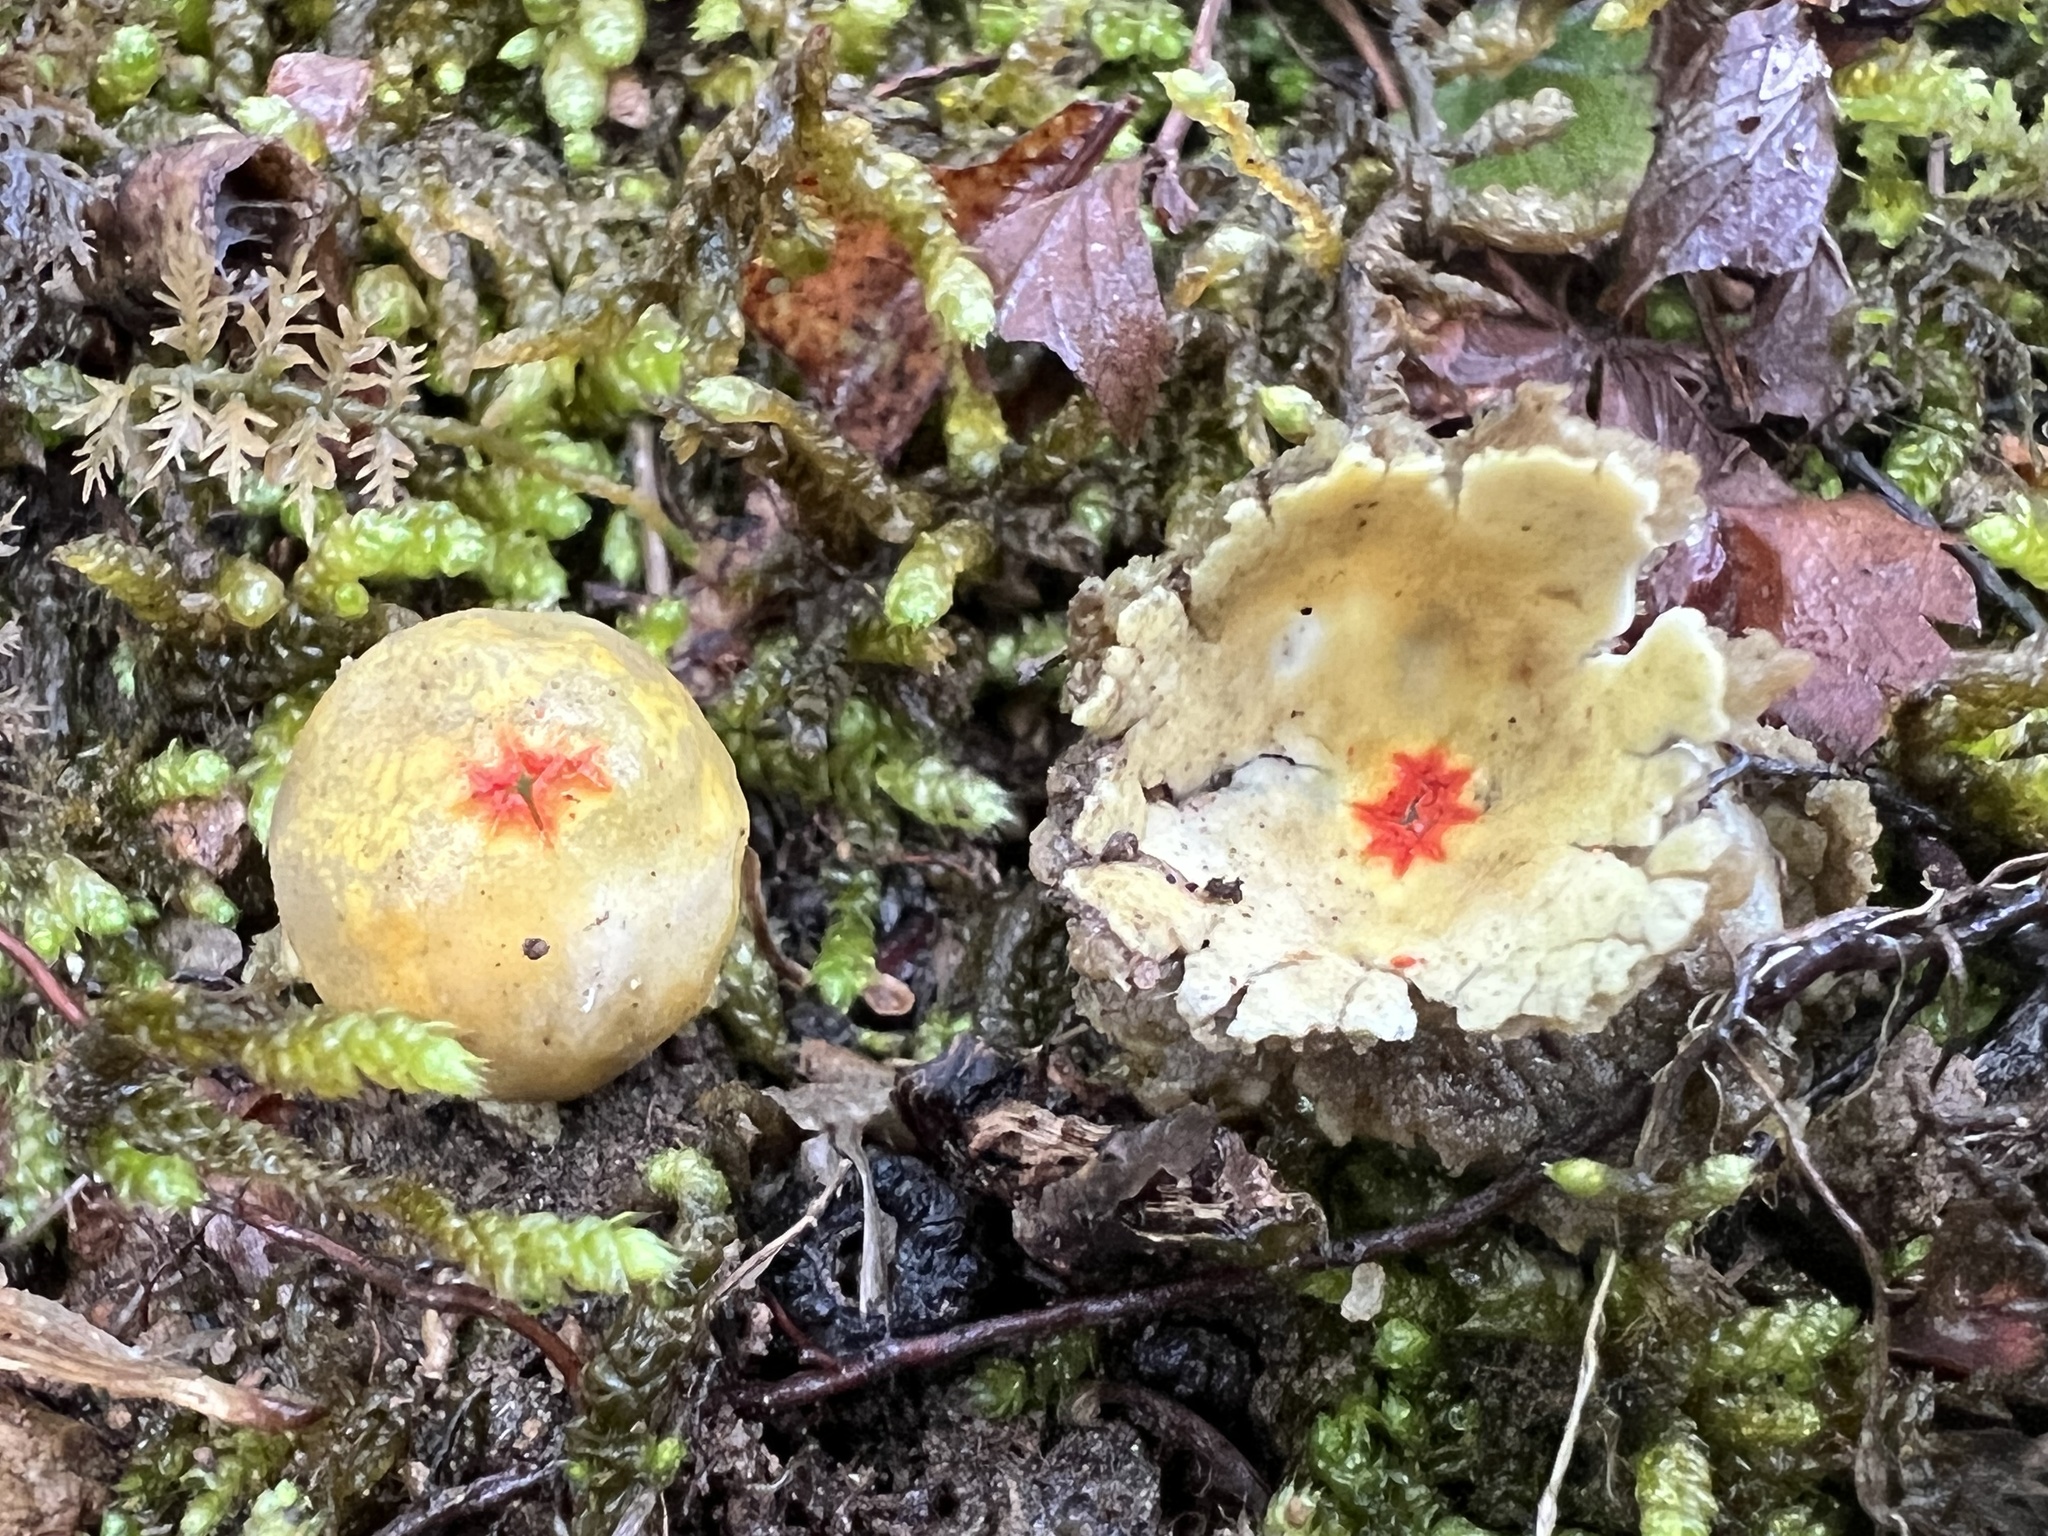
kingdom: Fungi
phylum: Basidiomycota
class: Agaricomycetes
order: Boletales
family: Calostomataceae
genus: Calostoma
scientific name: Calostoma lutescens
